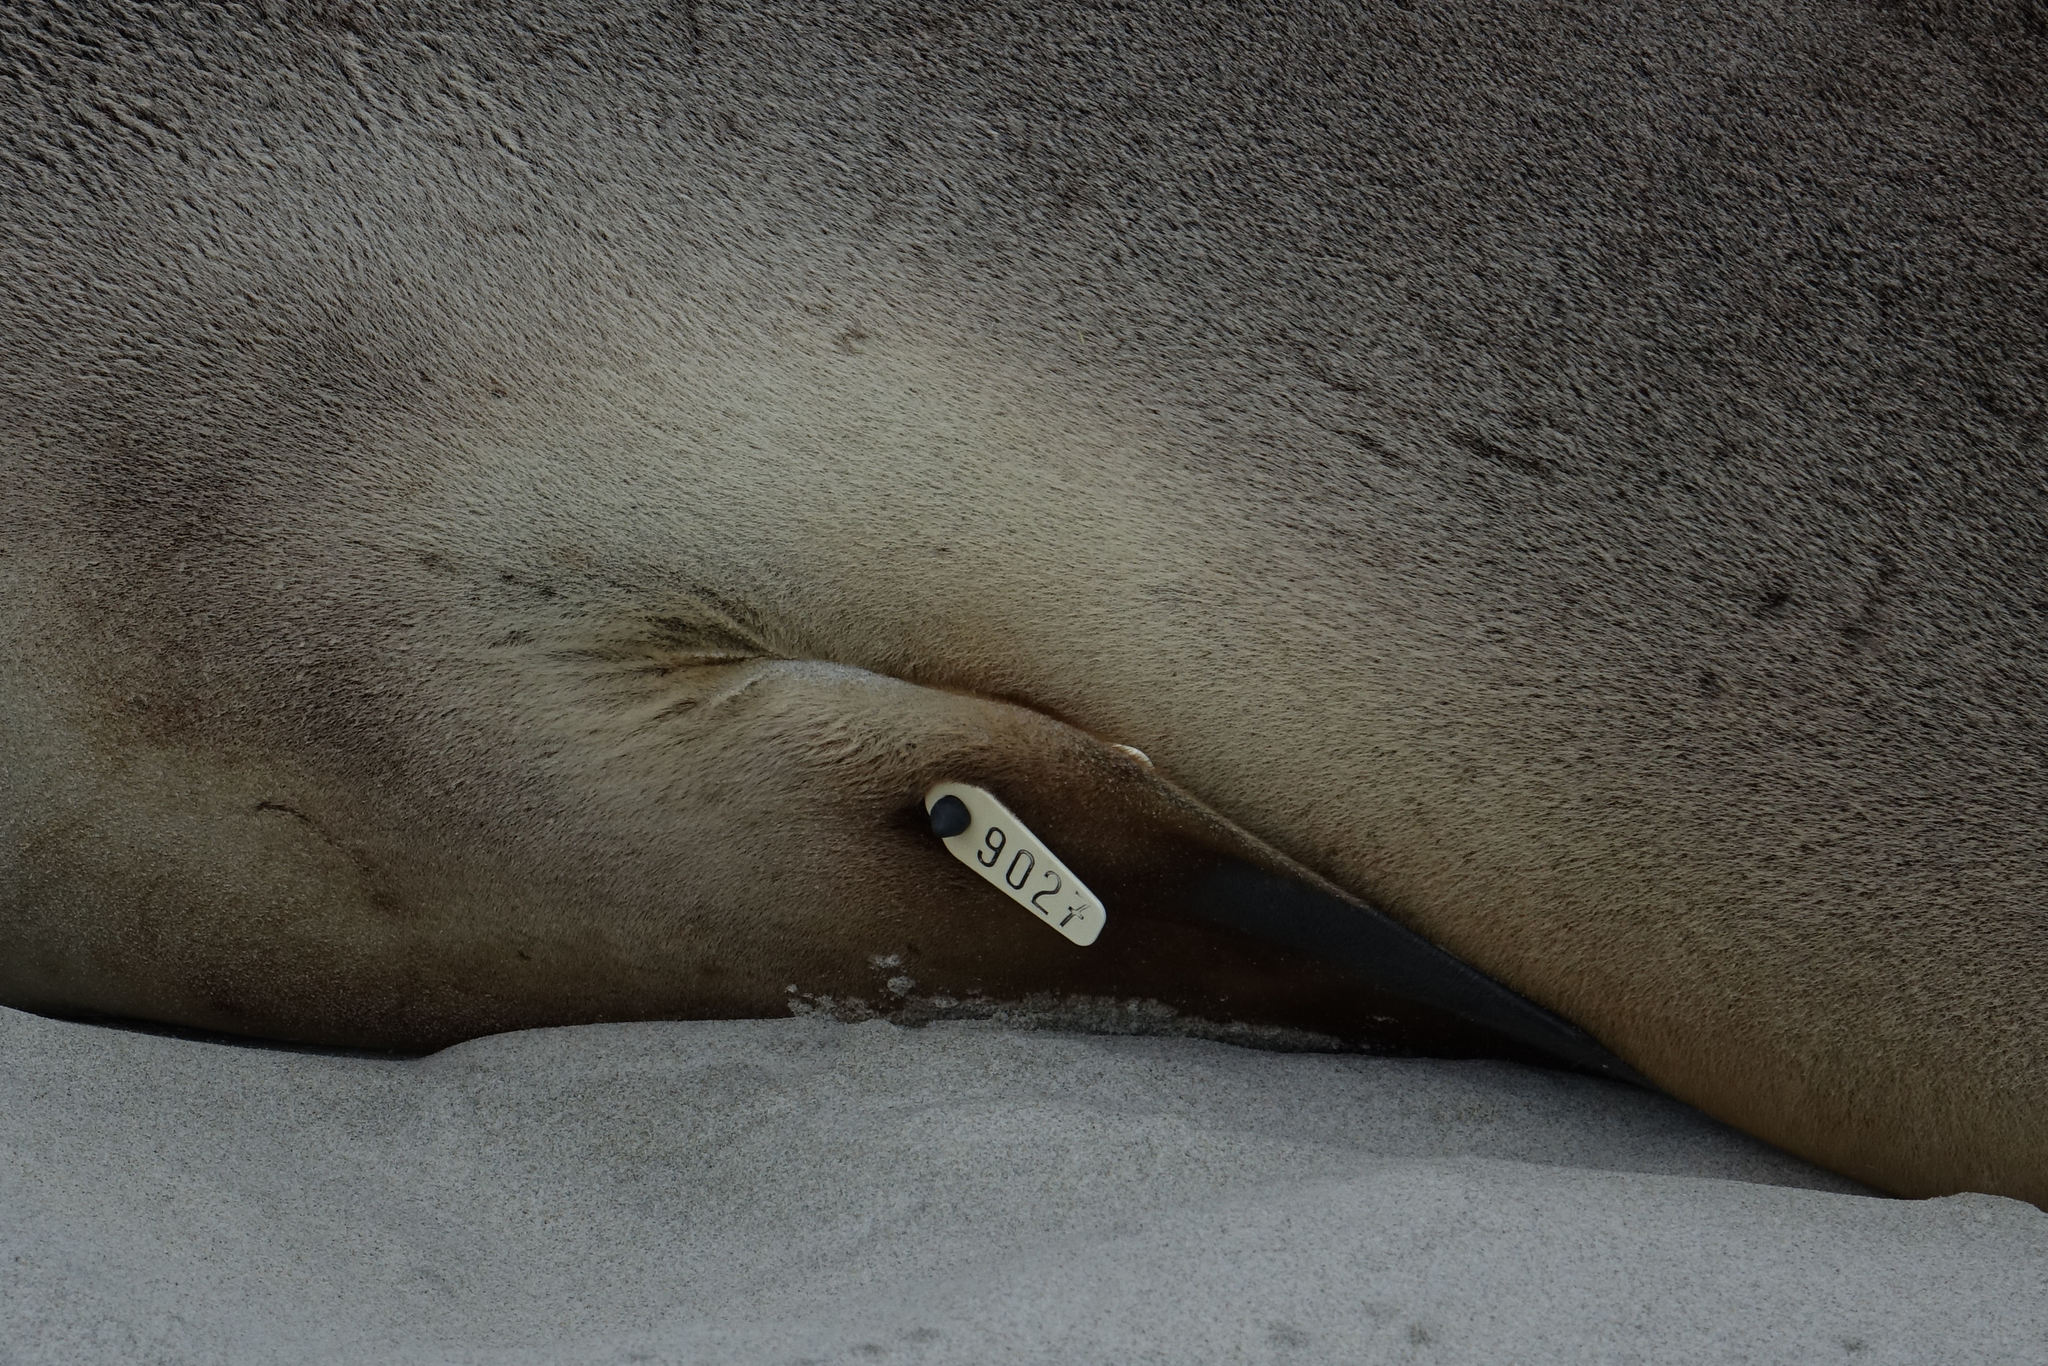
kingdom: Animalia
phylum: Chordata
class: Mammalia
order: Carnivora
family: Otariidae
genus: Phocarctos
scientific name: Phocarctos hookeri
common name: New zealand sea lion
